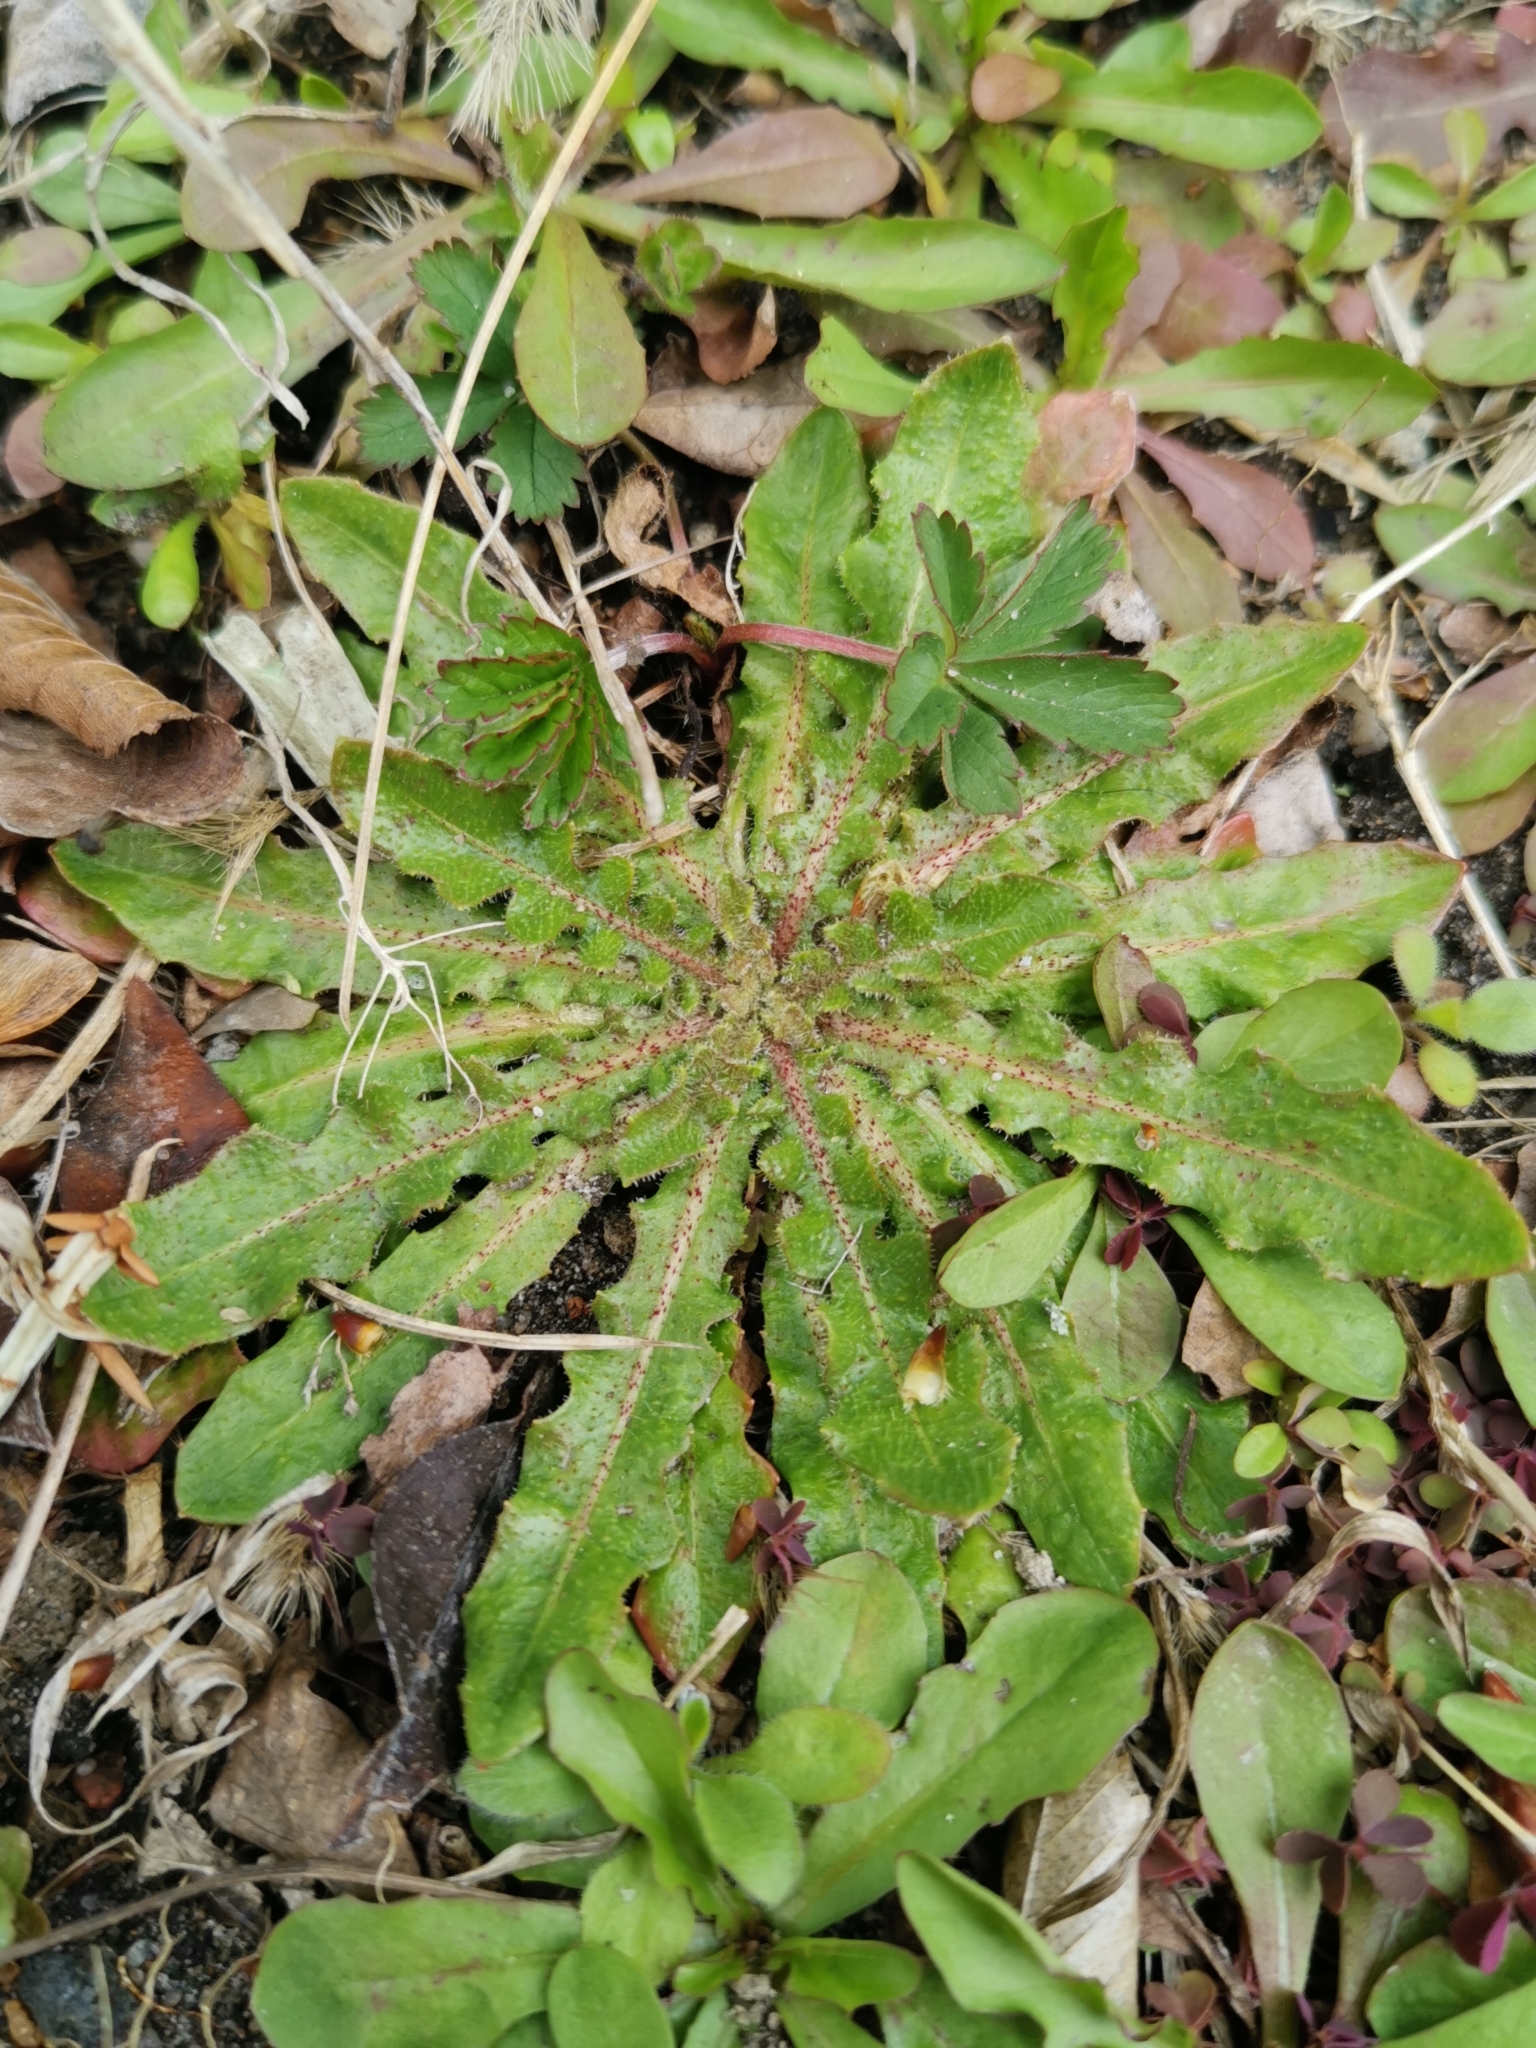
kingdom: Plantae
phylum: Tracheophyta
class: Magnoliopsida
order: Asterales
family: Asteraceae
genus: Hypochaeris
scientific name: Hypochaeris radicata
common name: Flatweed
